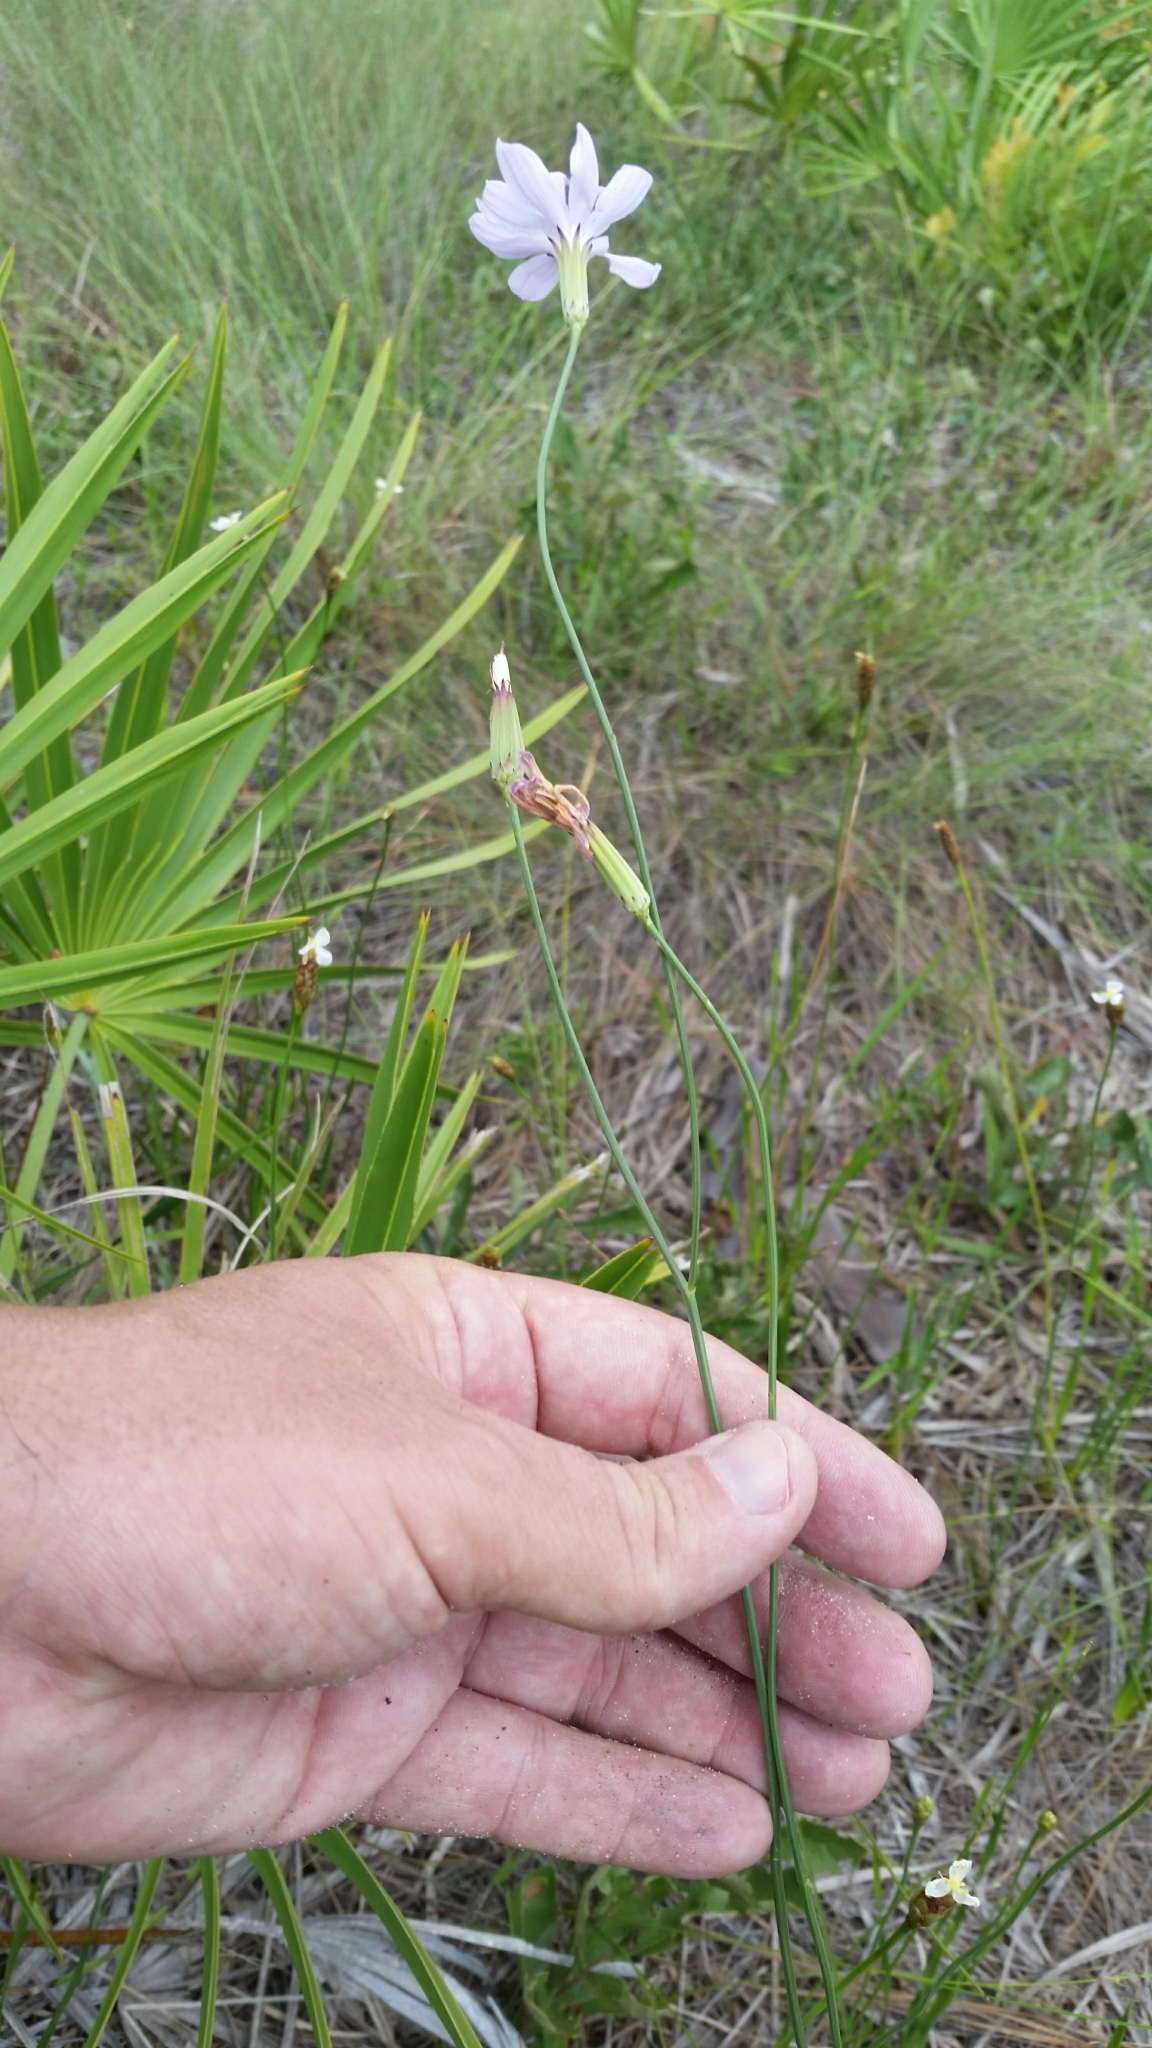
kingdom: Plantae
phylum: Tracheophyta
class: Magnoliopsida
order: Asterales
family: Asteraceae
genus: Lygodesmia
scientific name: Lygodesmia aphylla
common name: Rose-rush
